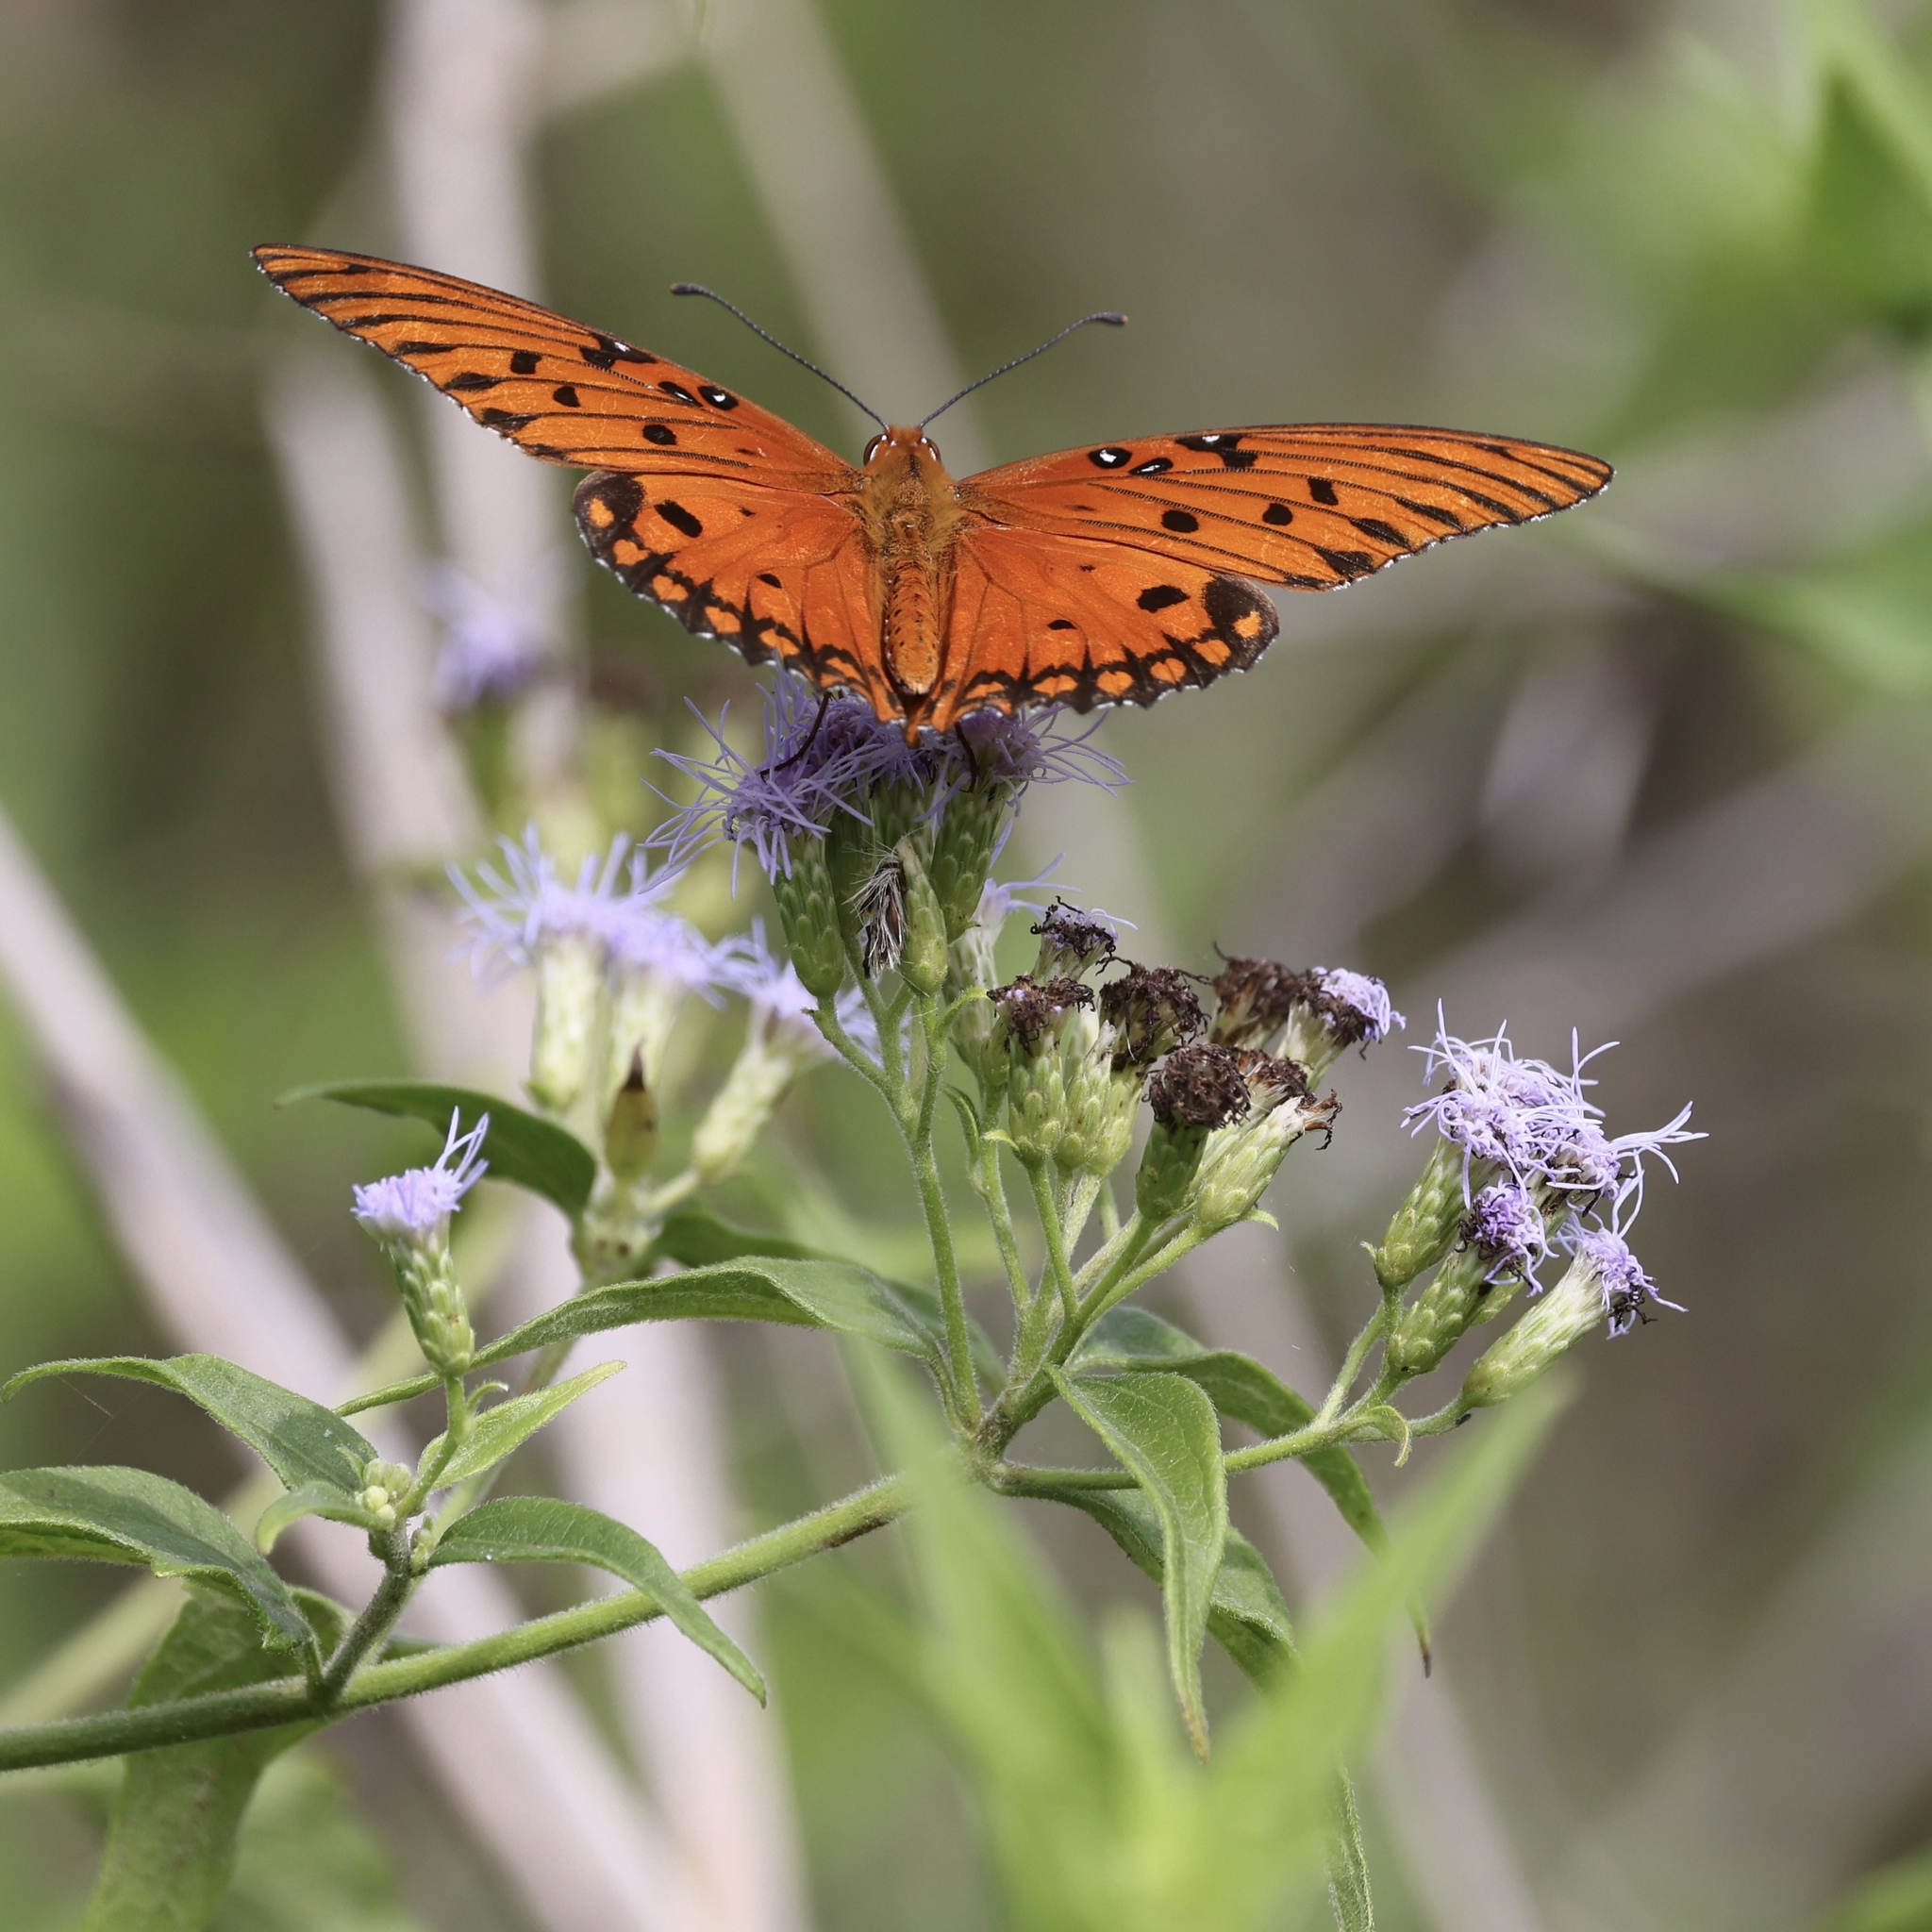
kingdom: Animalia
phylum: Arthropoda
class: Insecta
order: Lepidoptera
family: Nymphalidae
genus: Dione
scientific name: Dione vanillae
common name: Gulf fritillary
